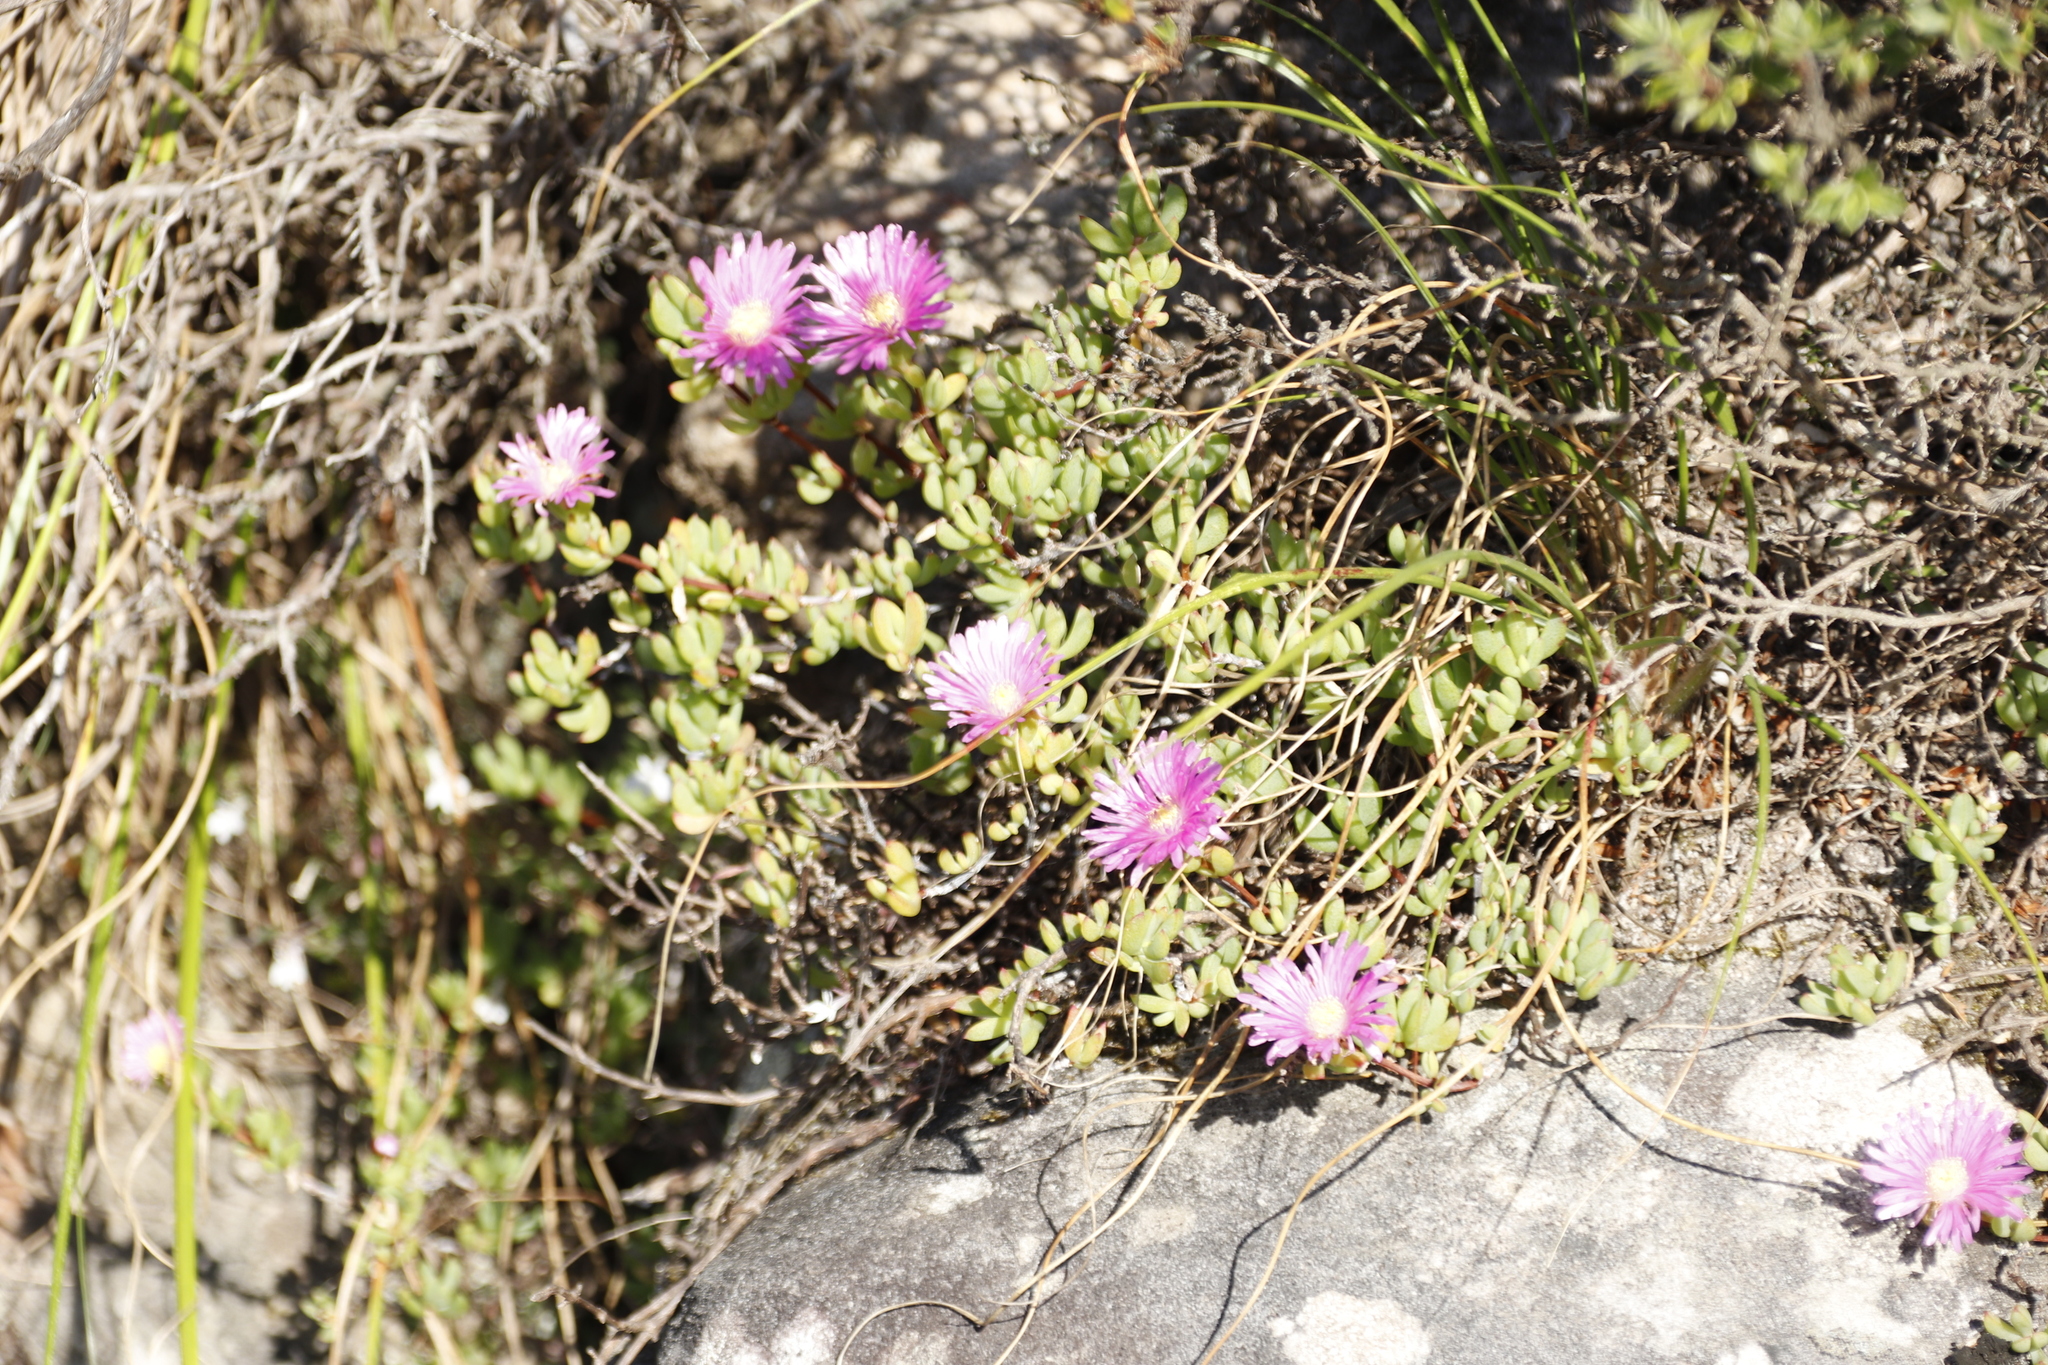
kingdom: Plantae
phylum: Tracheophyta
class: Magnoliopsida
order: Caryophyllales
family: Aizoaceae
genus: Oscularia
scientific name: Oscularia falciformis
